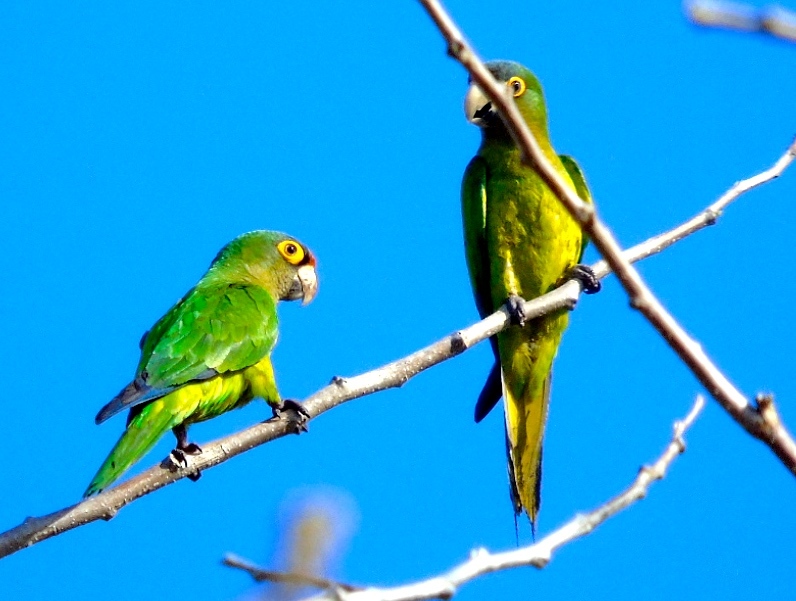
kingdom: Animalia
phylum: Chordata
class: Aves
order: Psittaciformes
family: Psittacidae
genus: Aratinga
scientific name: Aratinga canicularis
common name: Orange-fronted parakeet
